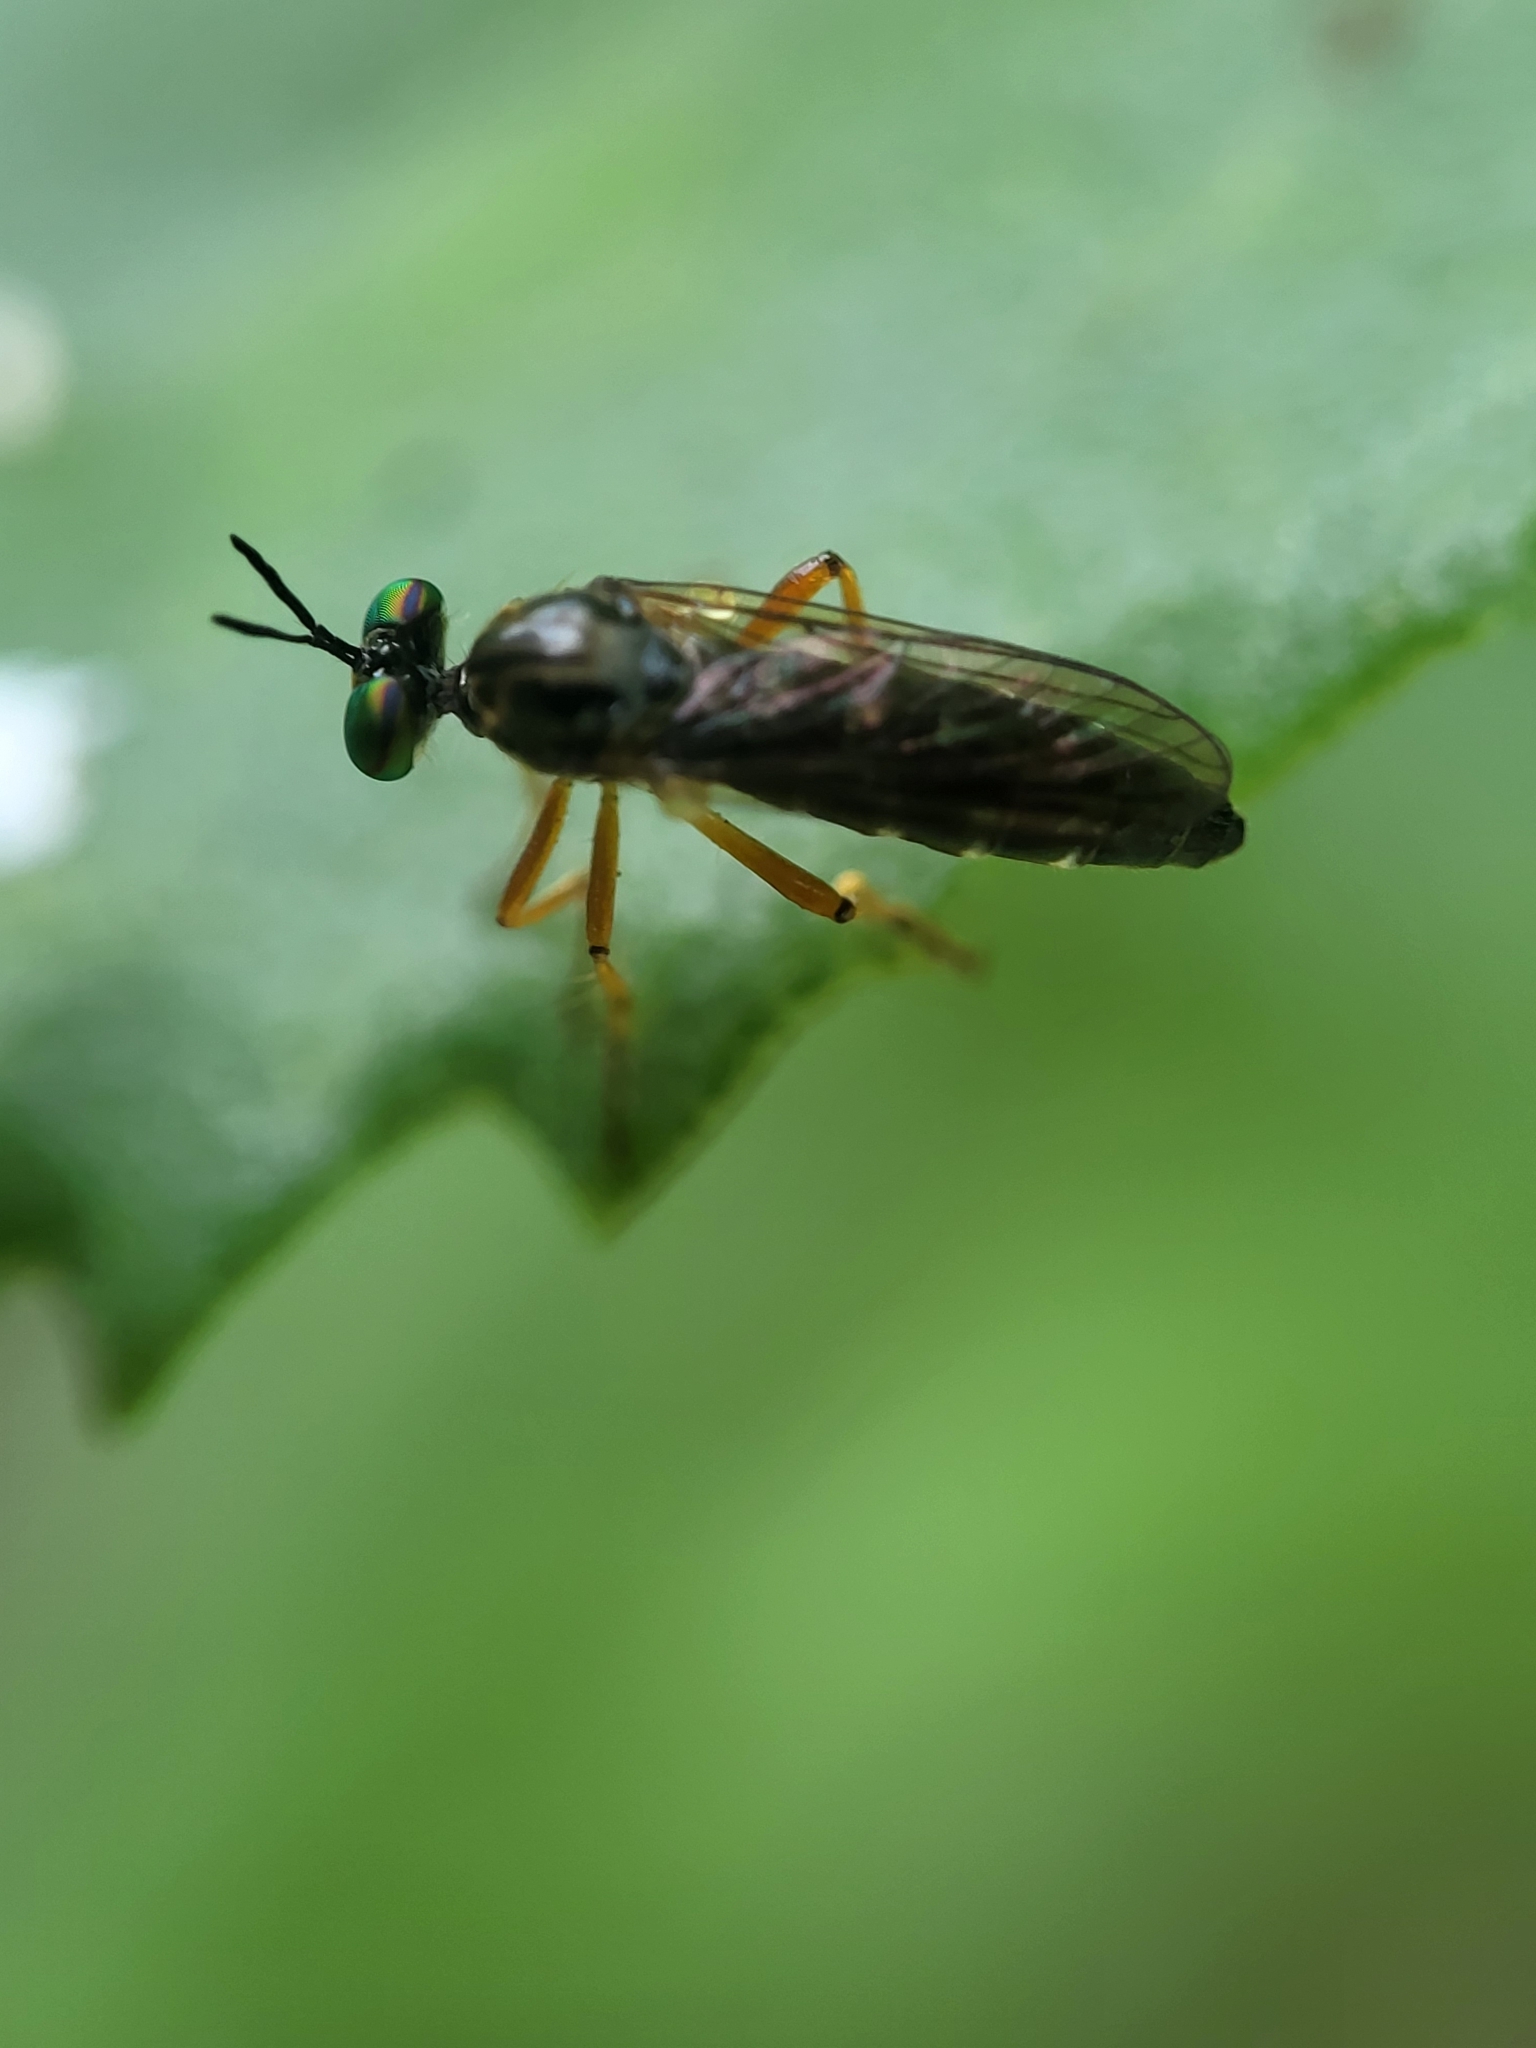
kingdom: Animalia
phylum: Arthropoda
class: Insecta
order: Diptera
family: Asilidae
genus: Taracticus
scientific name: Taracticus octopunctatus
